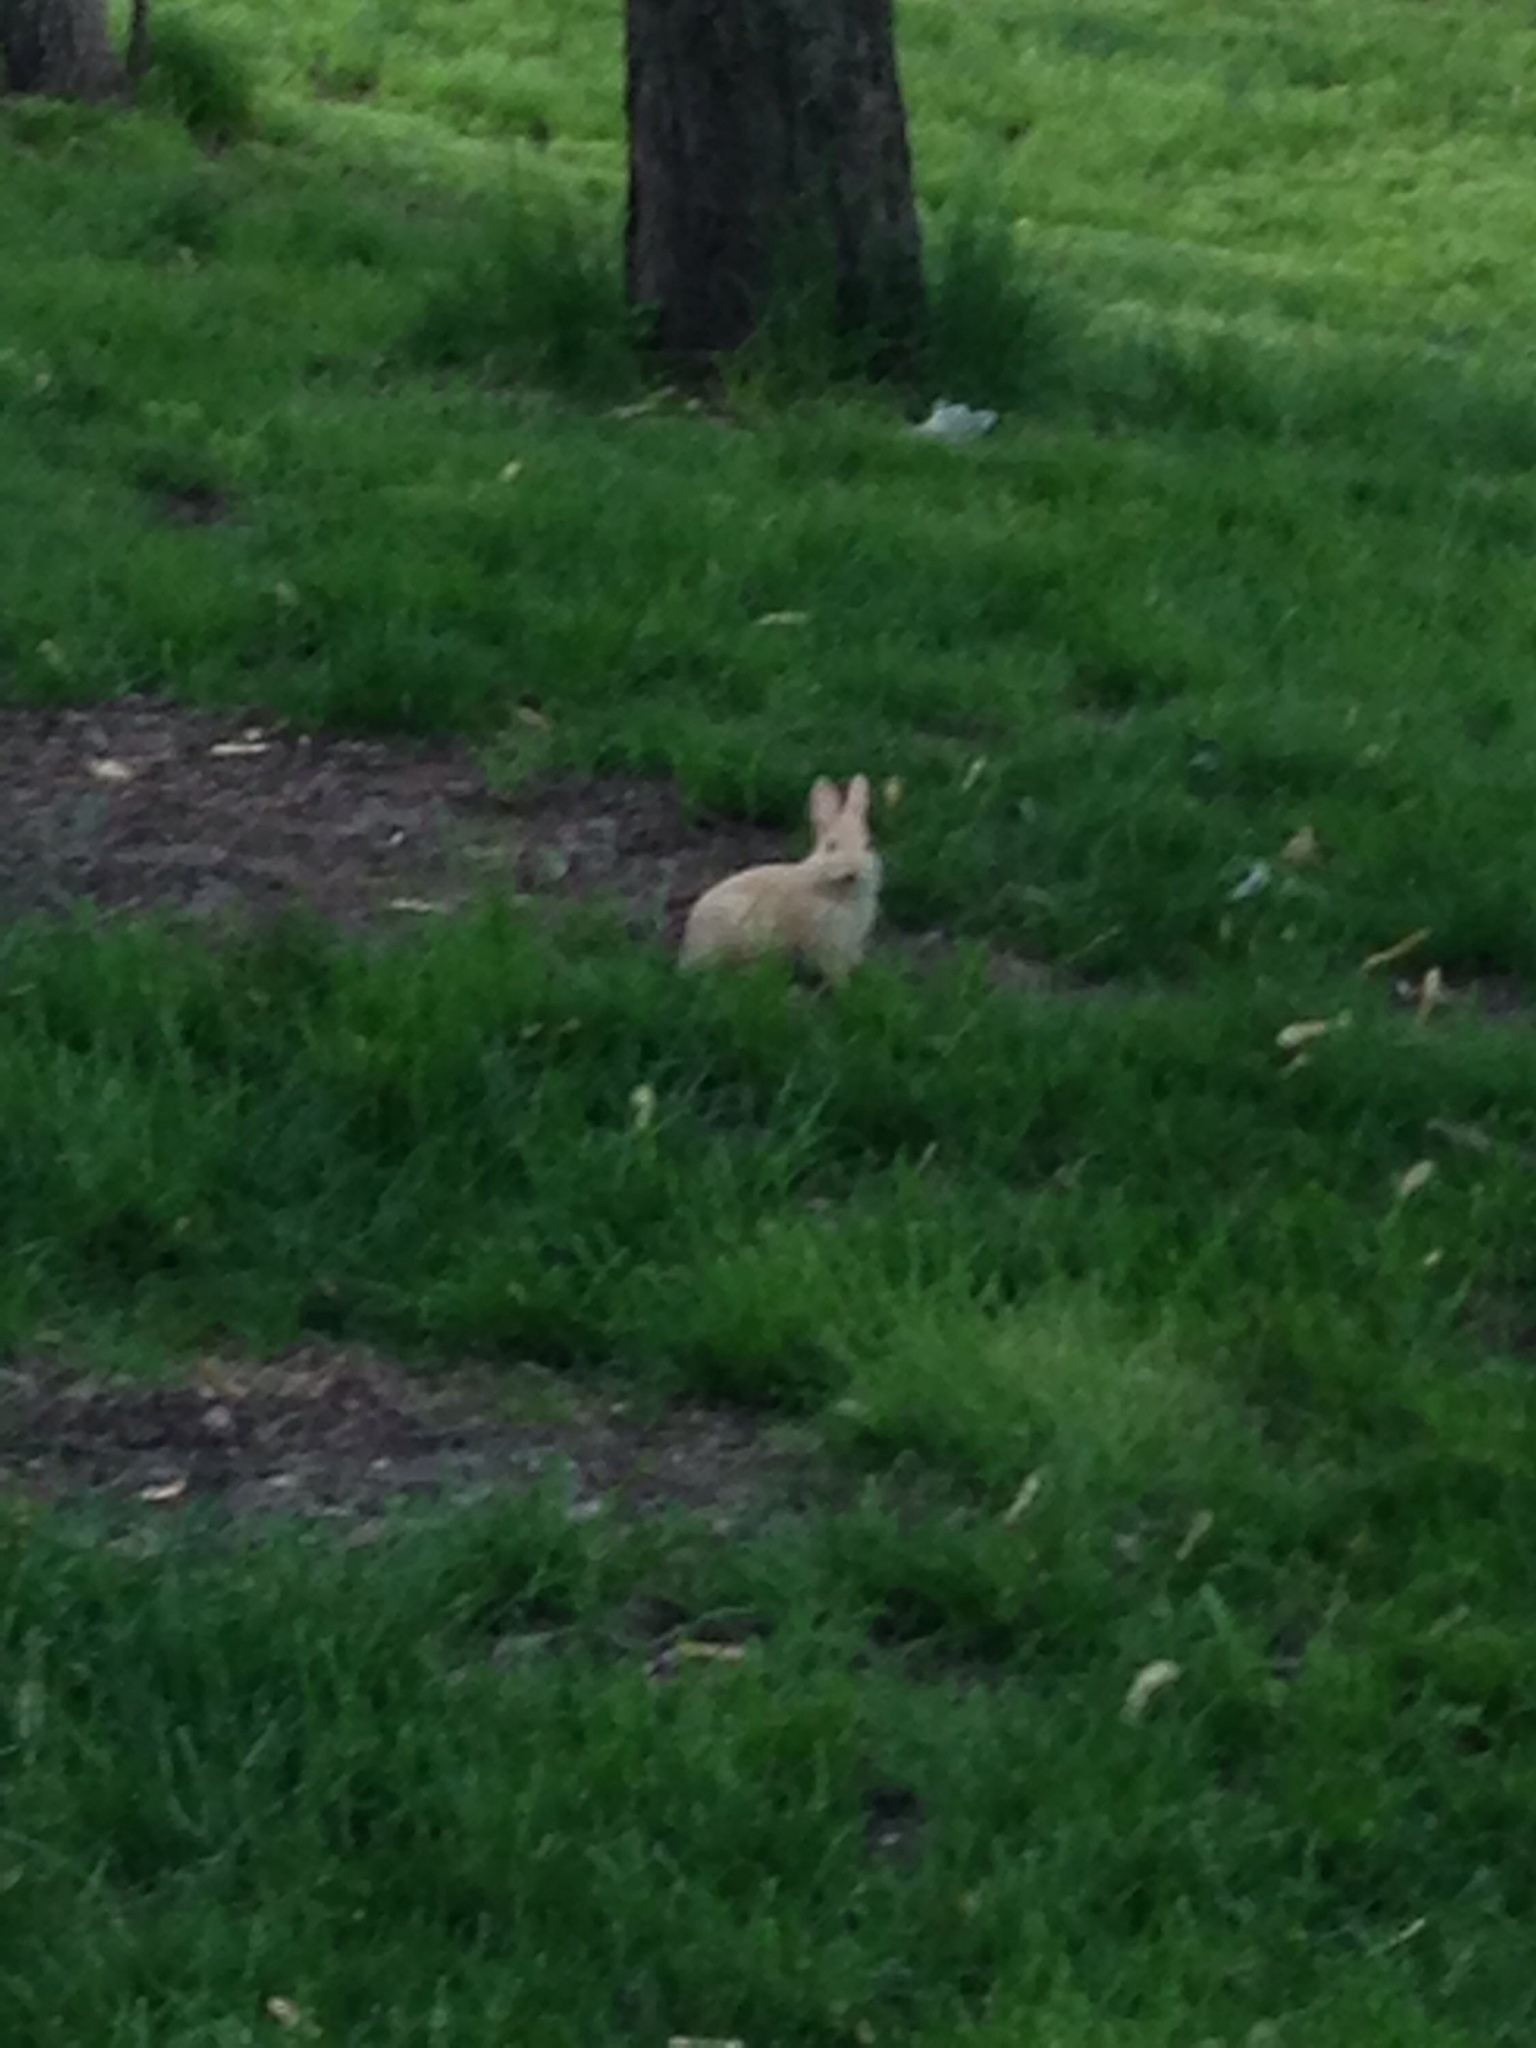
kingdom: Animalia
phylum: Chordata
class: Mammalia
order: Lagomorpha
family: Leporidae
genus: Sylvilagus
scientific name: Sylvilagus floridanus
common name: Eastern cottontail
